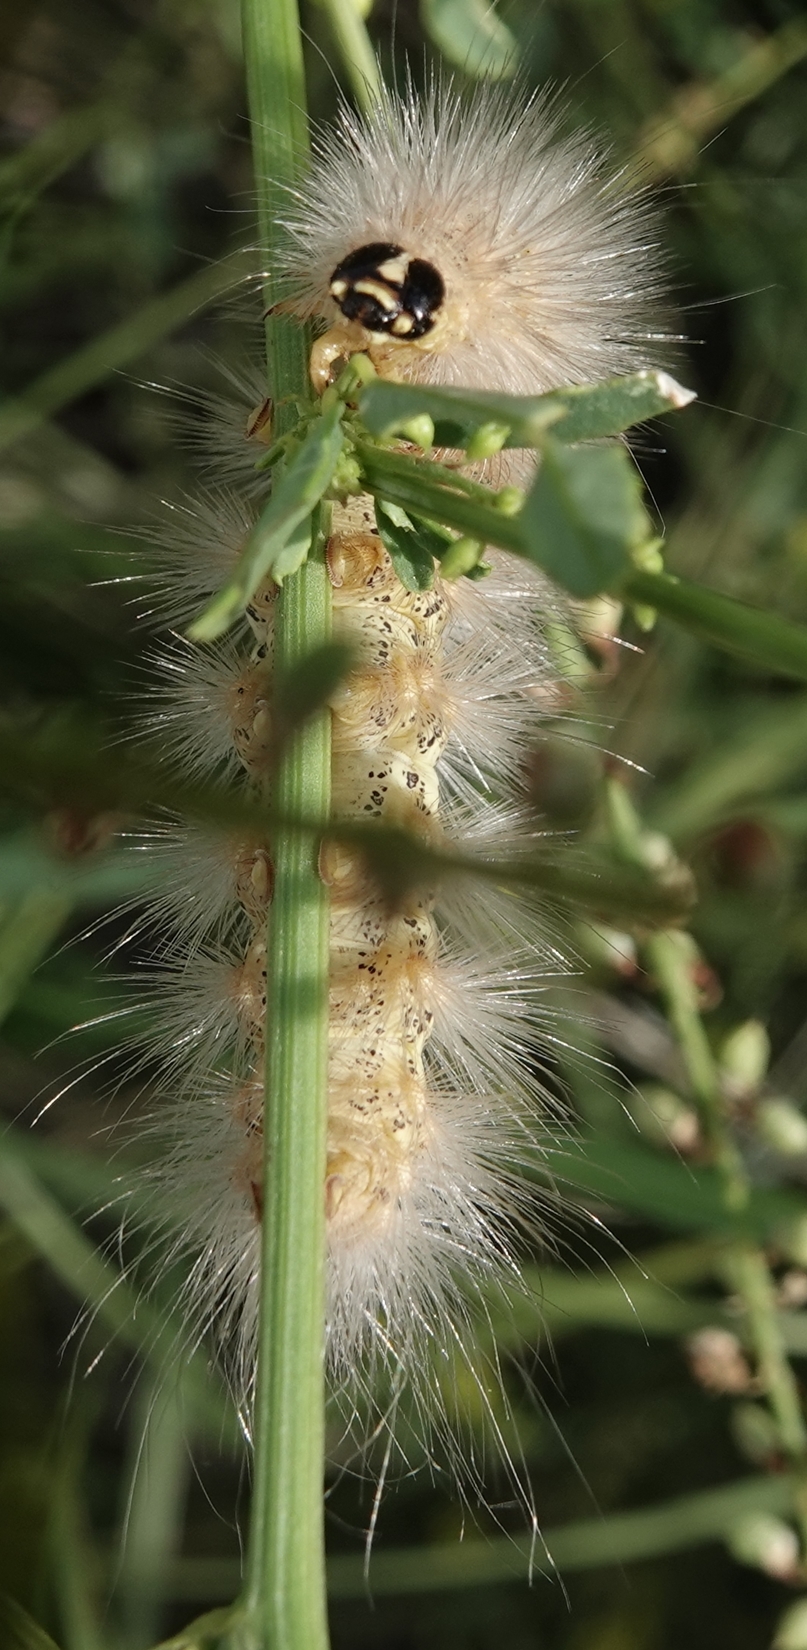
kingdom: Animalia
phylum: Arthropoda
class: Insecta
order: Lepidoptera
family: Erebidae
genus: Estigmene
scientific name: Estigmene
